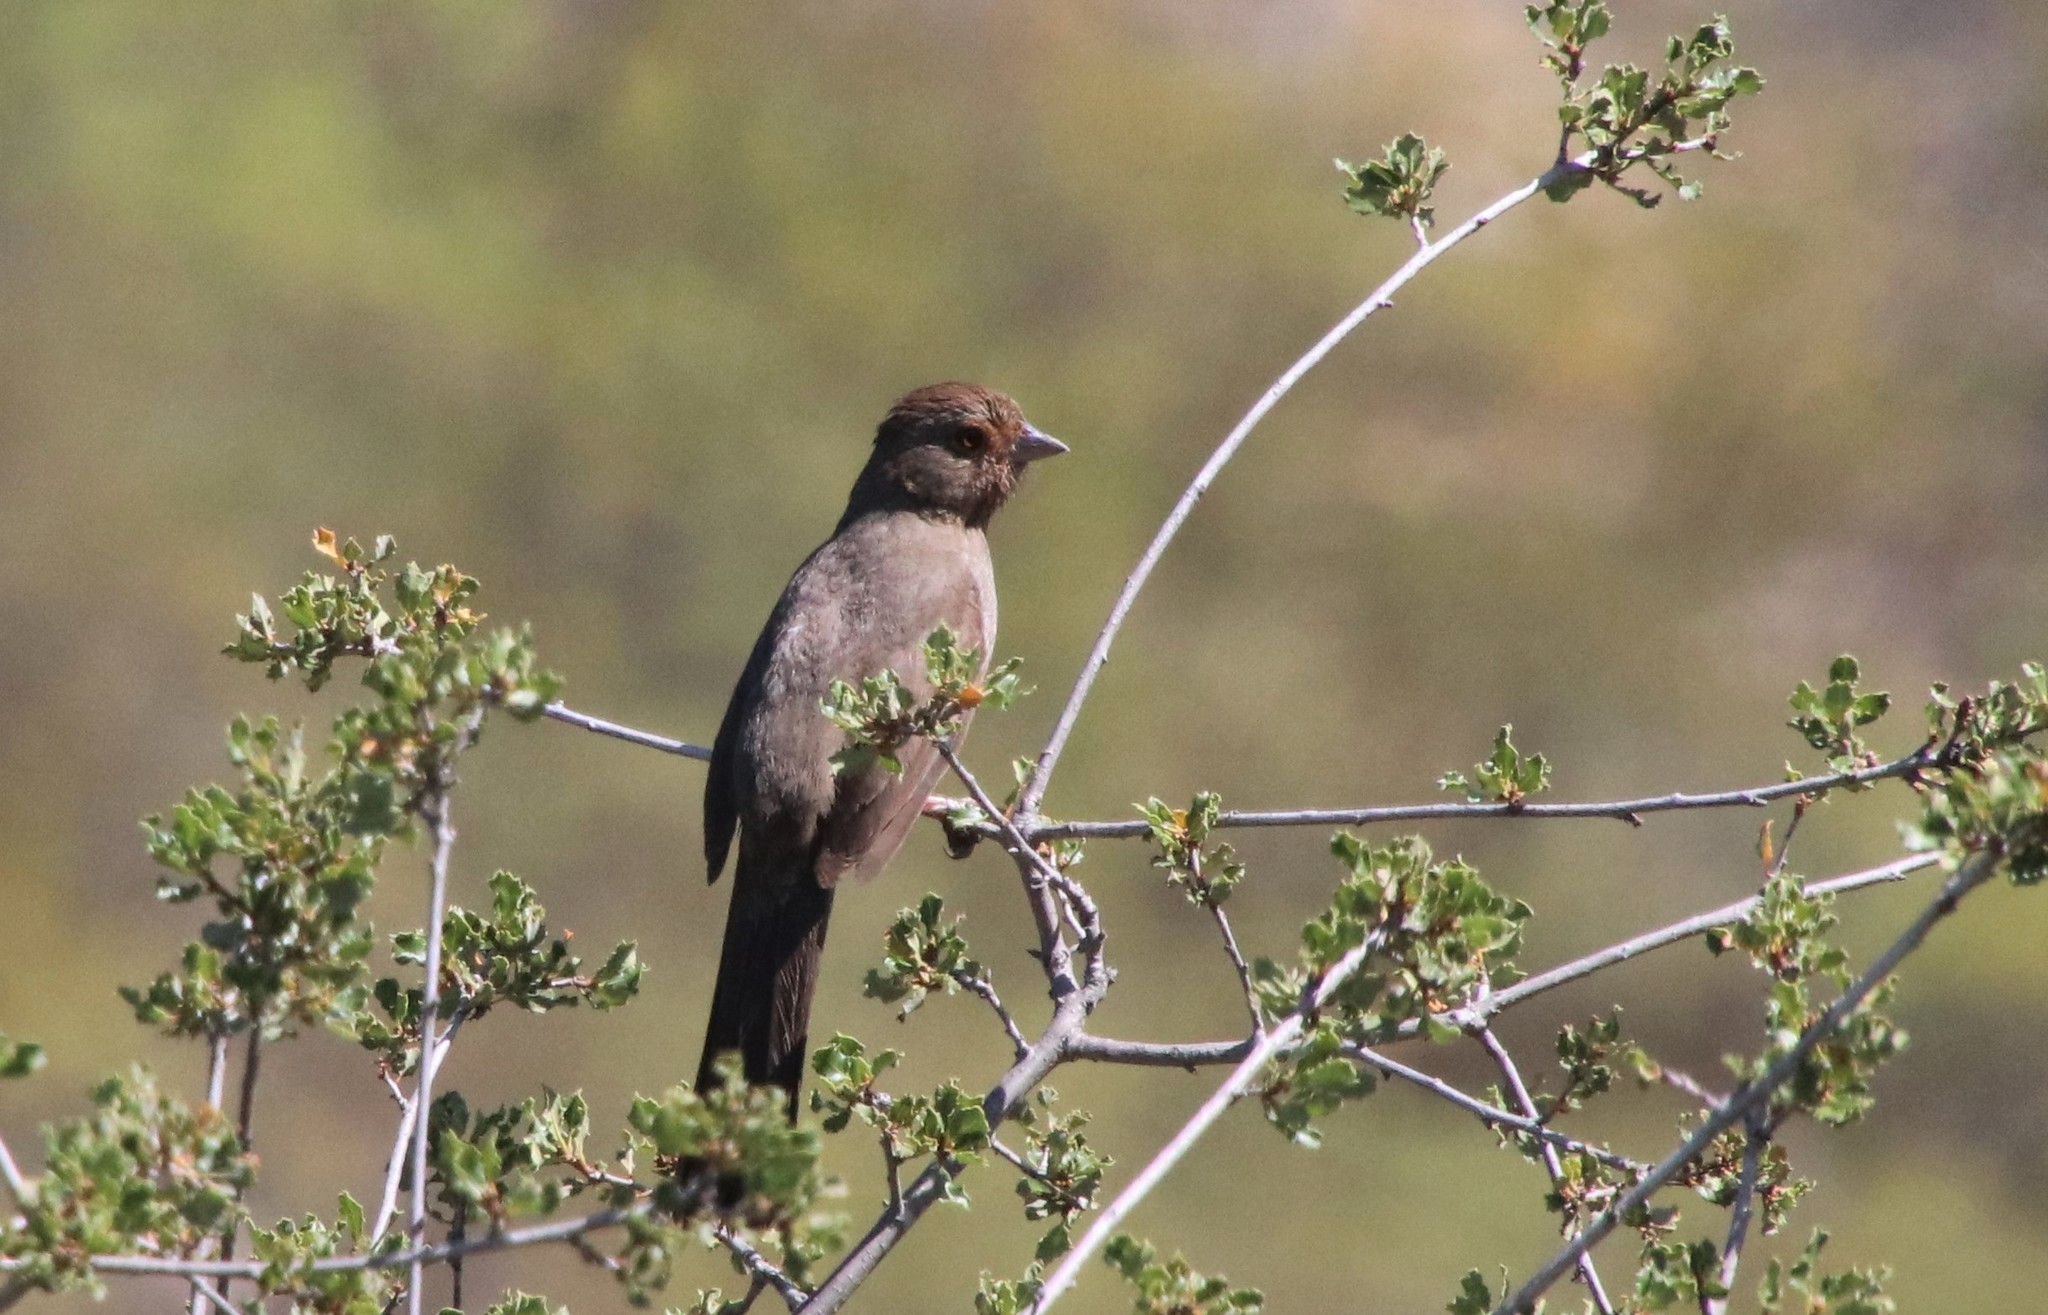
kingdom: Animalia
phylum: Chordata
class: Aves
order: Passeriformes
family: Passerellidae
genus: Melozone
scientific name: Melozone crissalis
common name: California towhee
